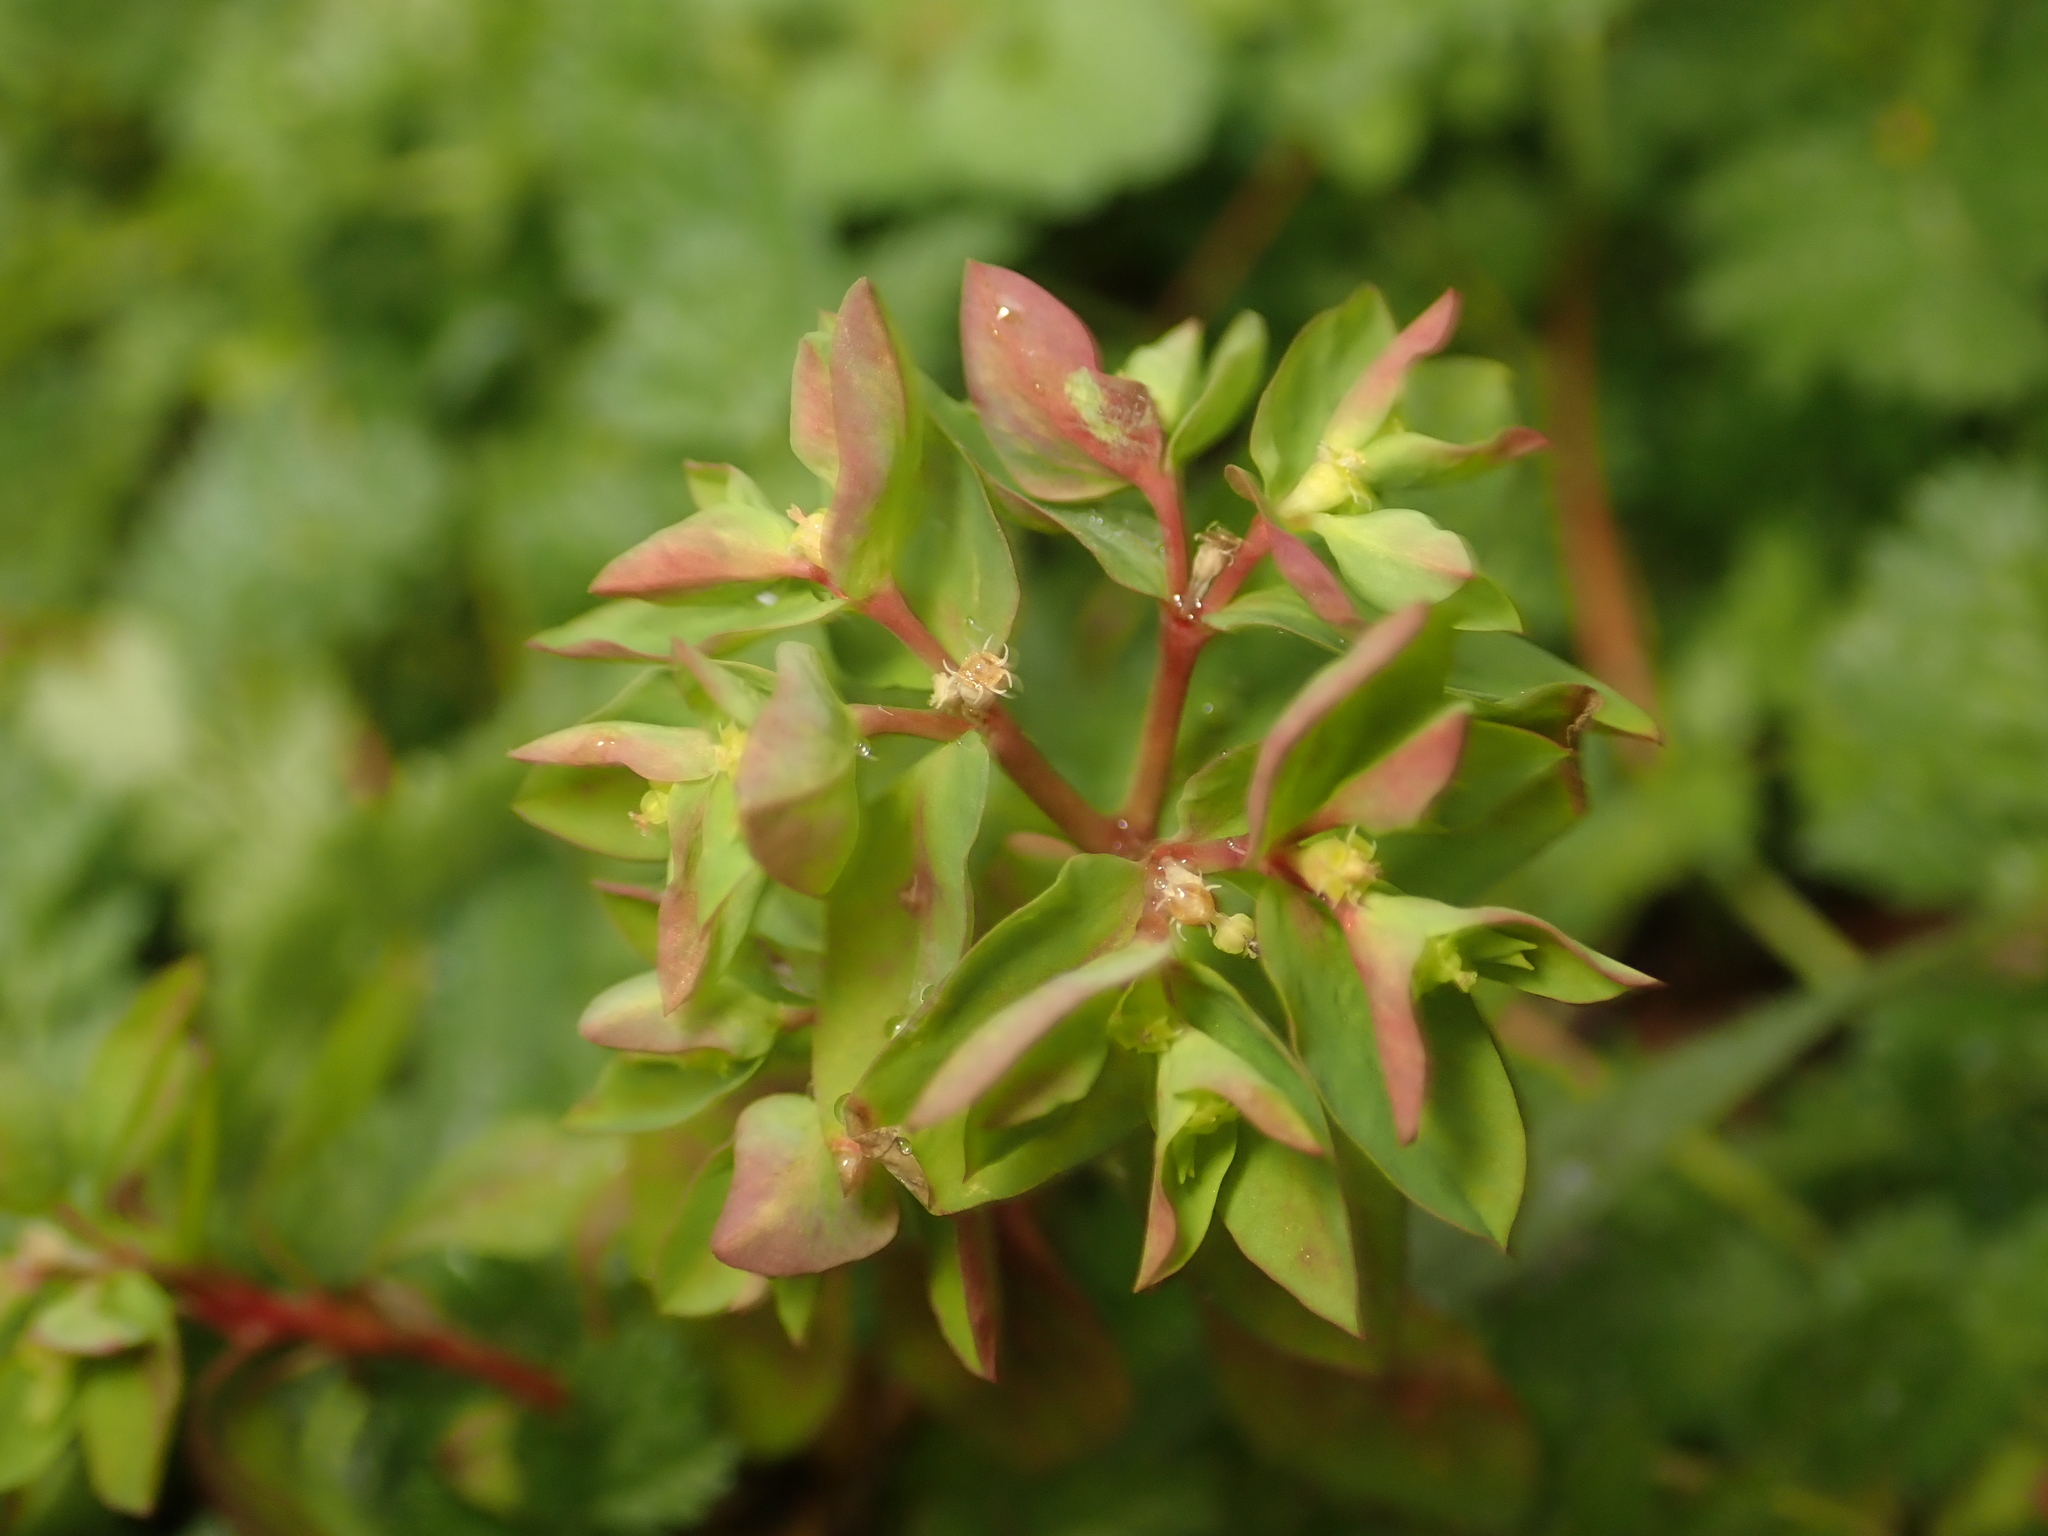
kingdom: Plantae
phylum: Tracheophyta
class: Magnoliopsida
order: Malpighiales
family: Euphorbiaceae
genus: Euphorbia
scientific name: Euphorbia peplus
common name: Petty spurge
